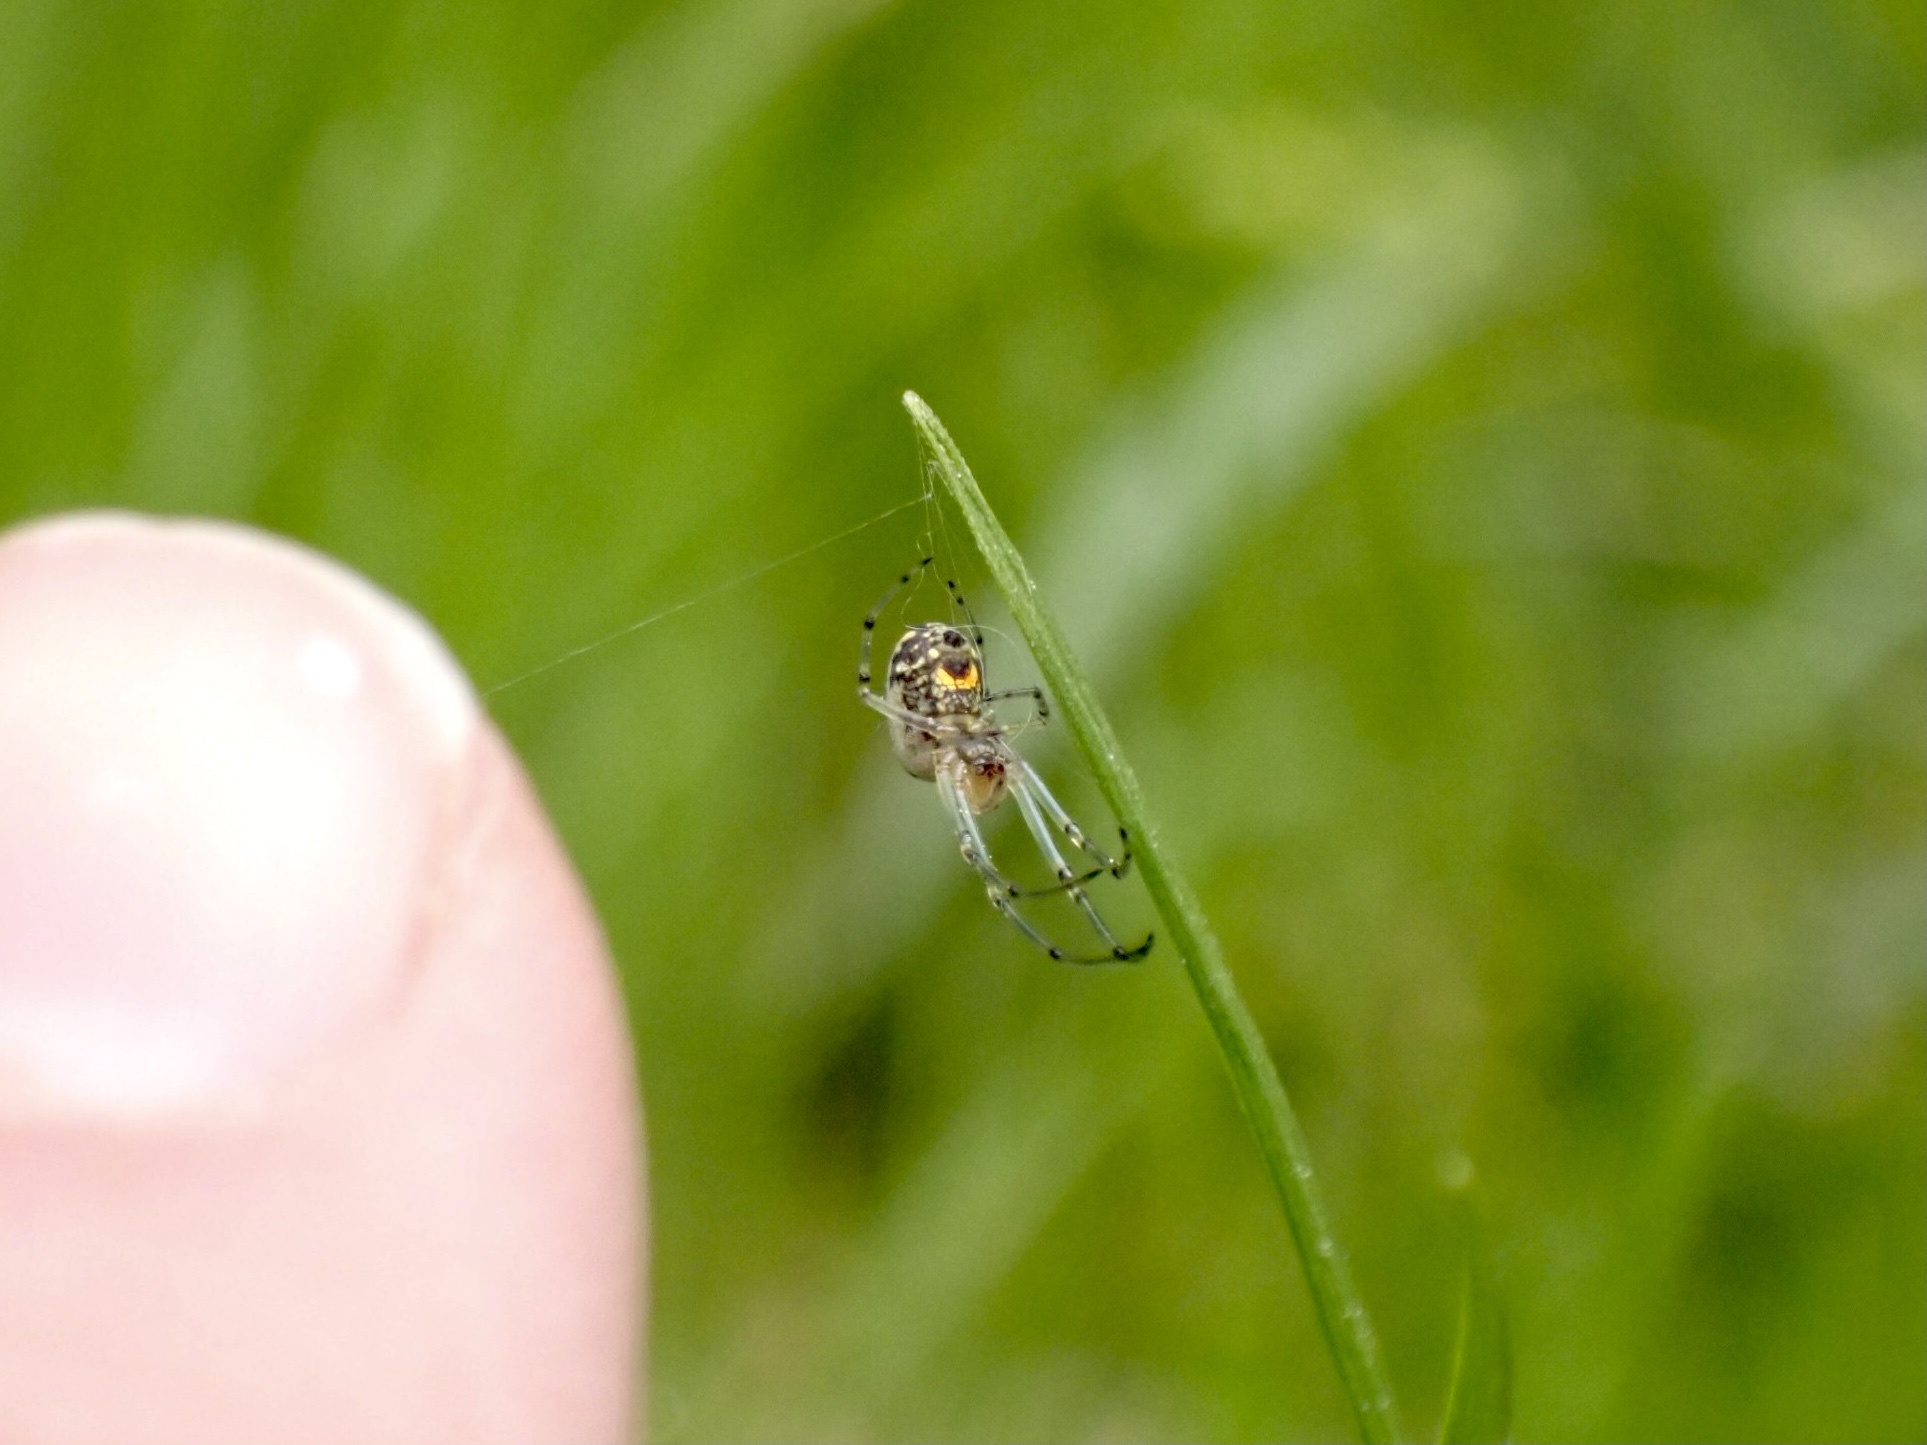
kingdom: Animalia
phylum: Arthropoda
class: Arachnida
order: Araneae
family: Tetragnathidae
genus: Leucauge
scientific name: Leucauge venusta
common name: Longjawed orb weavers
